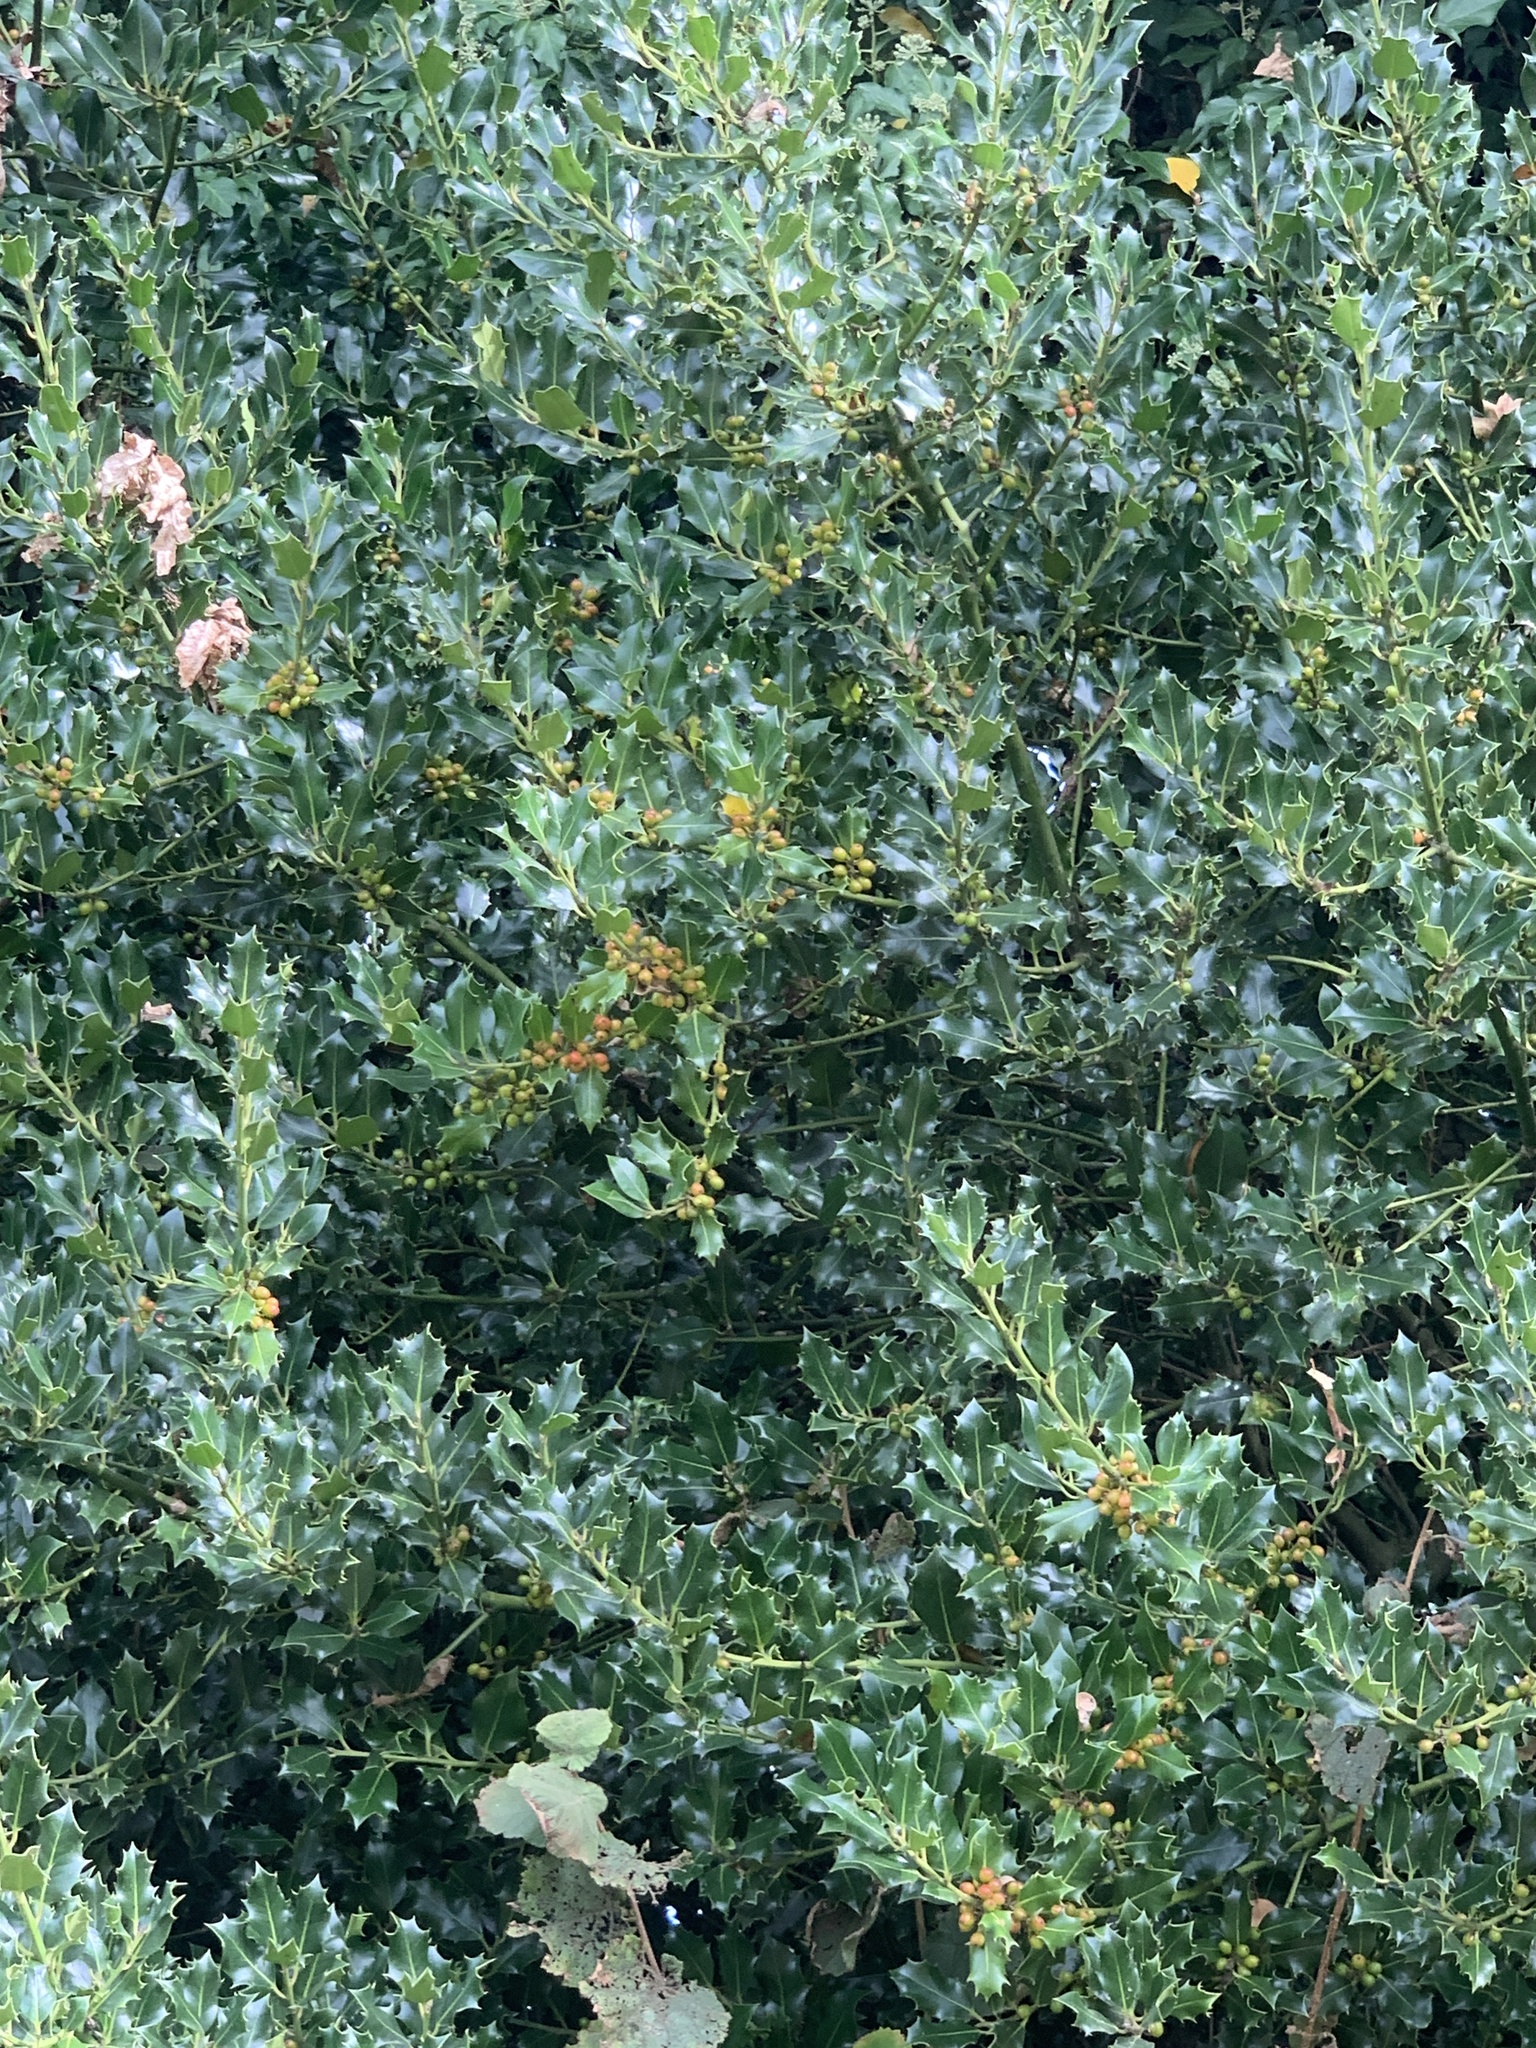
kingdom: Plantae
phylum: Tracheophyta
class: Magnoliopsida
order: Aquifoliales
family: Aquifoliaceae
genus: Ilex
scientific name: Ilex aquifolium
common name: English holly
